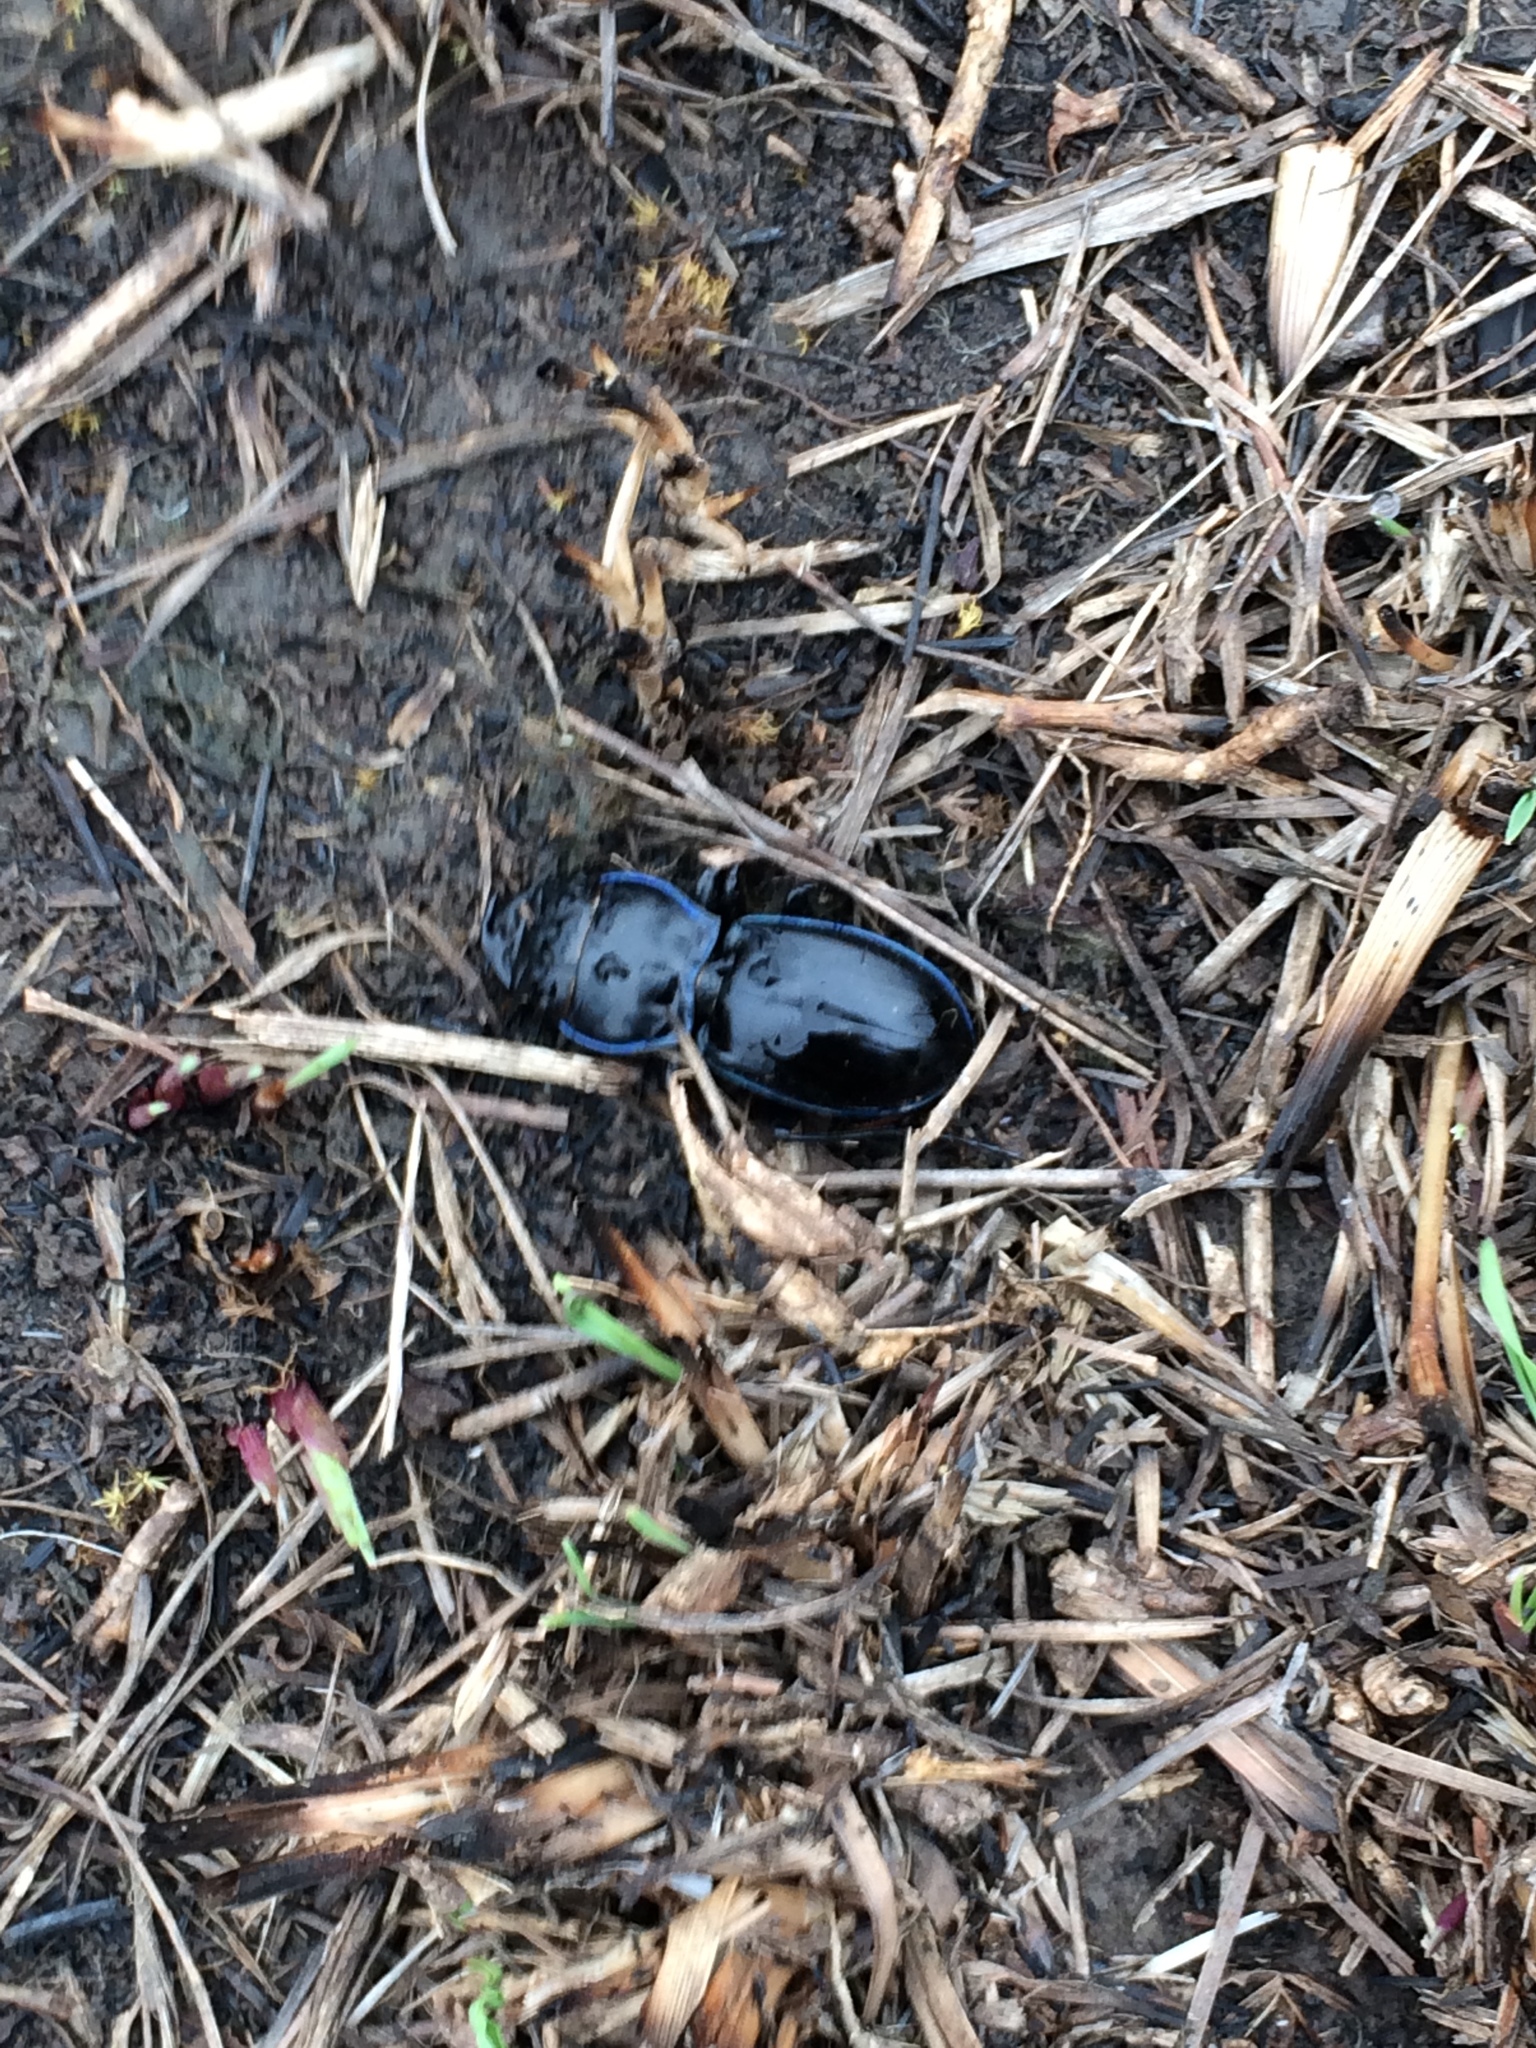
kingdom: Animalia
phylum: Arthropoda
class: Insecta
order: Coleoptera
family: Carabidae
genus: Pasimachus
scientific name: Pasimachus elongatus
